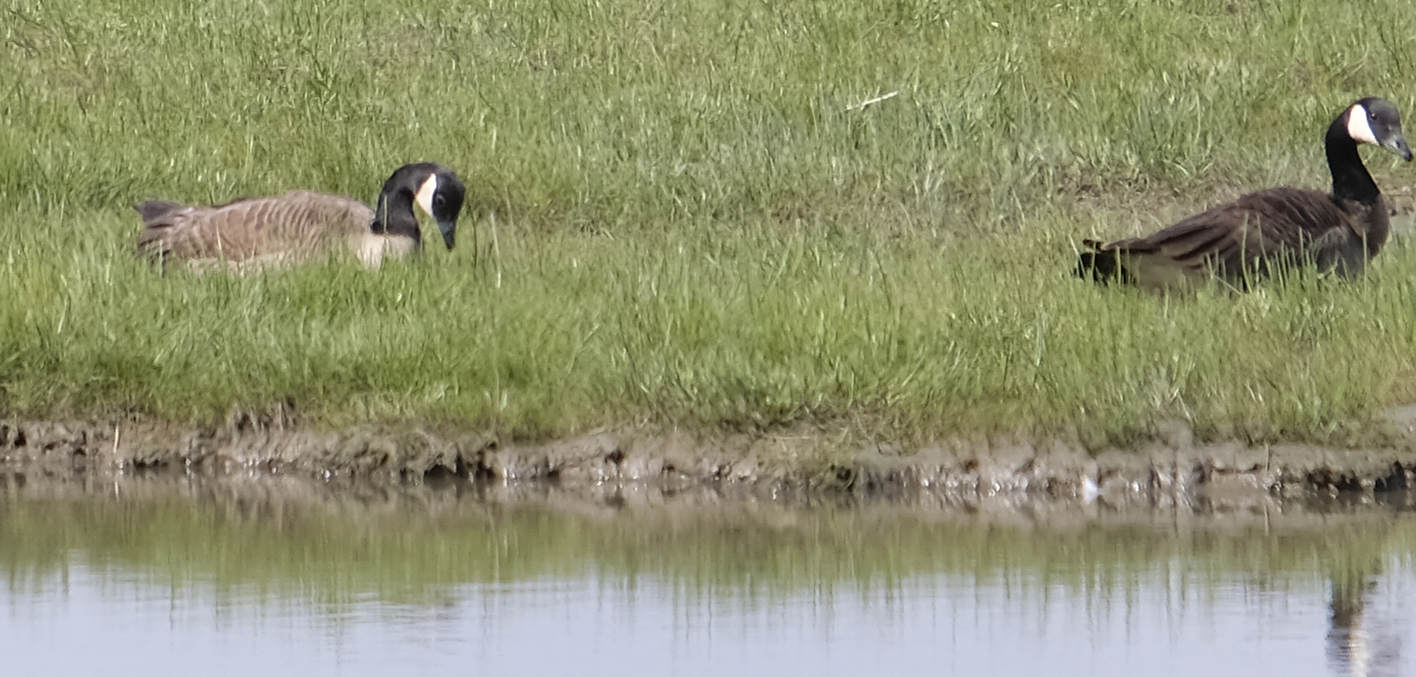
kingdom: Animalia
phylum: Chordata
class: Aves
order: Anseriformes
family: Anatidae
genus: Branta
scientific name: Branta canadensis
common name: Canada goose
